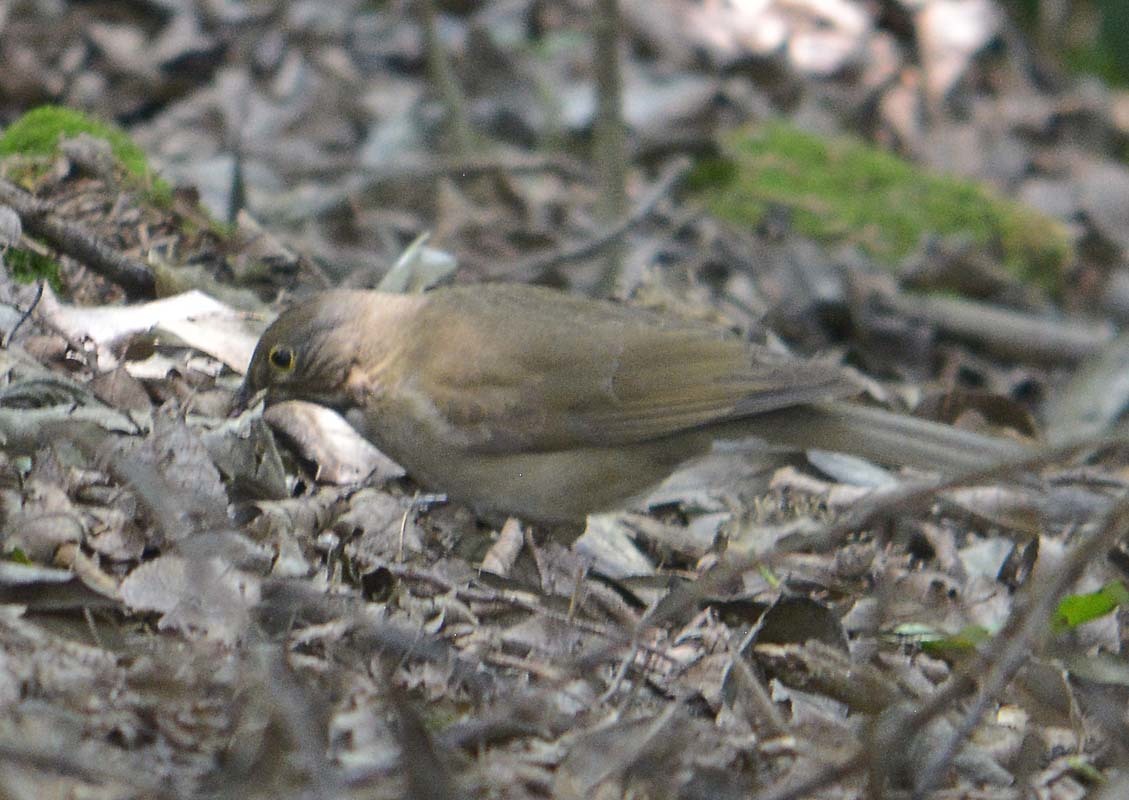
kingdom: Animalia
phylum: Chordata
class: Aves
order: Passeriformes
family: Turdidae
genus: Turdus
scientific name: Turdus assimilis
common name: White-throated thrush
